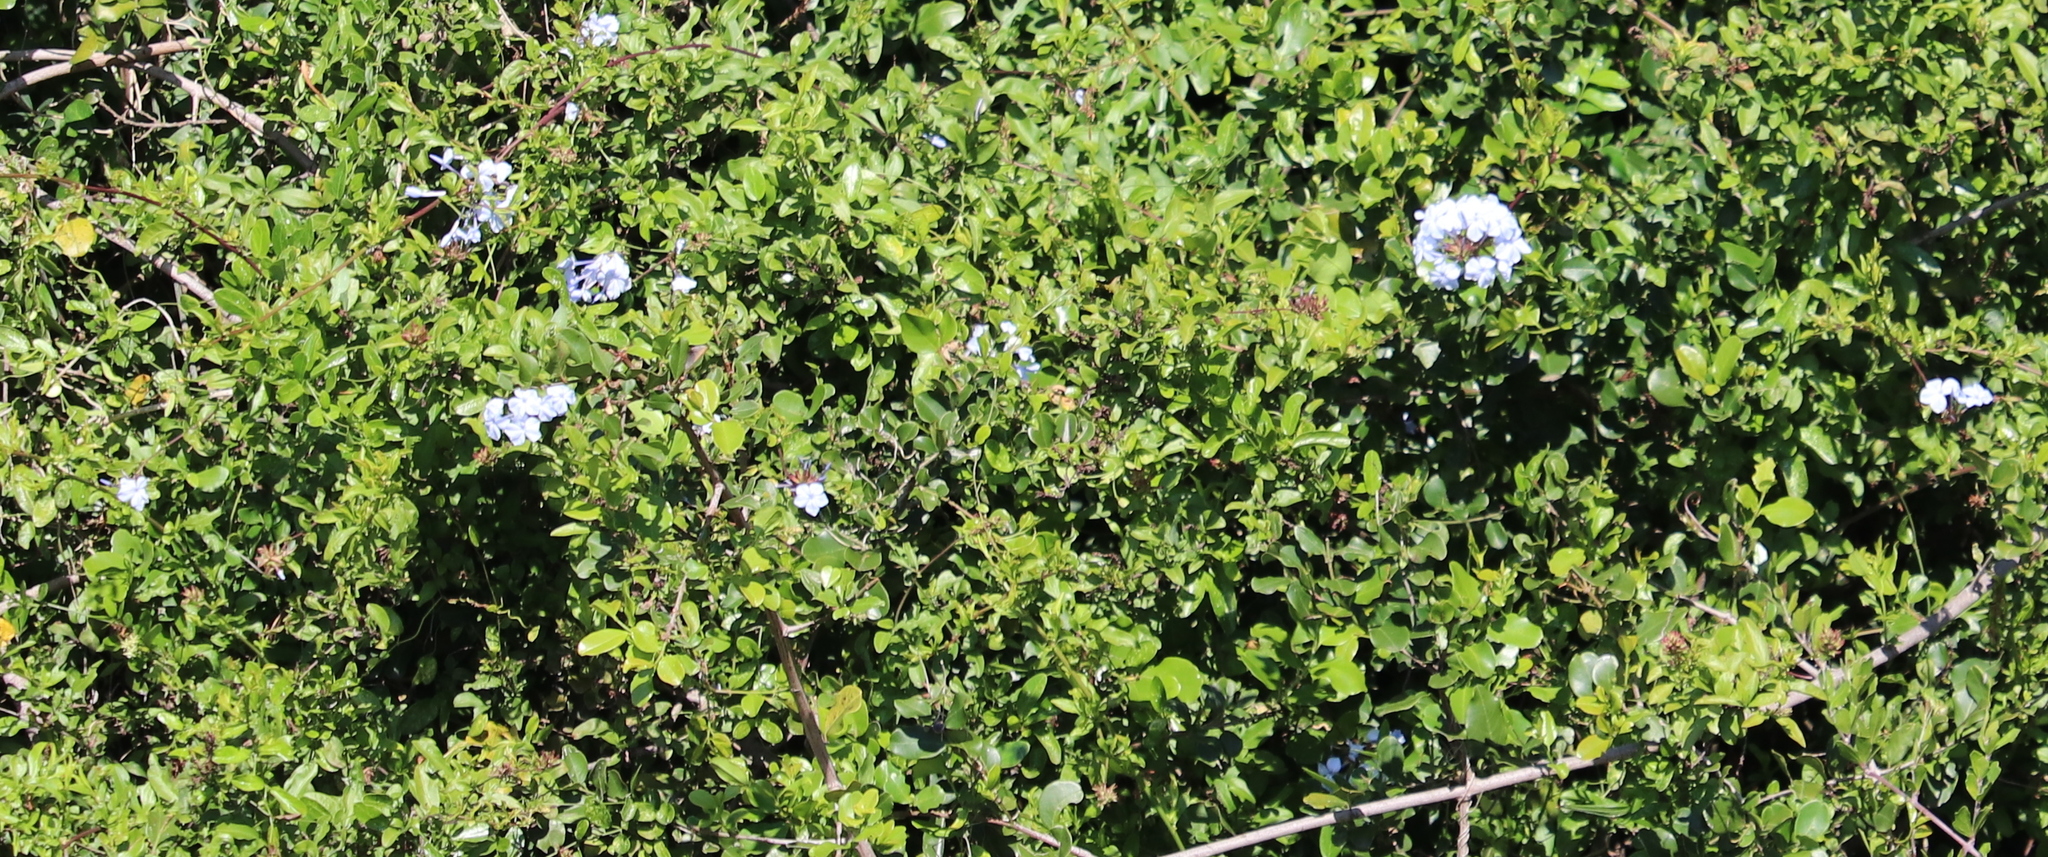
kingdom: Plantae
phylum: Tracheophyta
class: Magnoliopsida
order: Caryophyllales
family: Plumbaginaceae
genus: Plumbago
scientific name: Plumbago auriculata
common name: Cape leadwort
